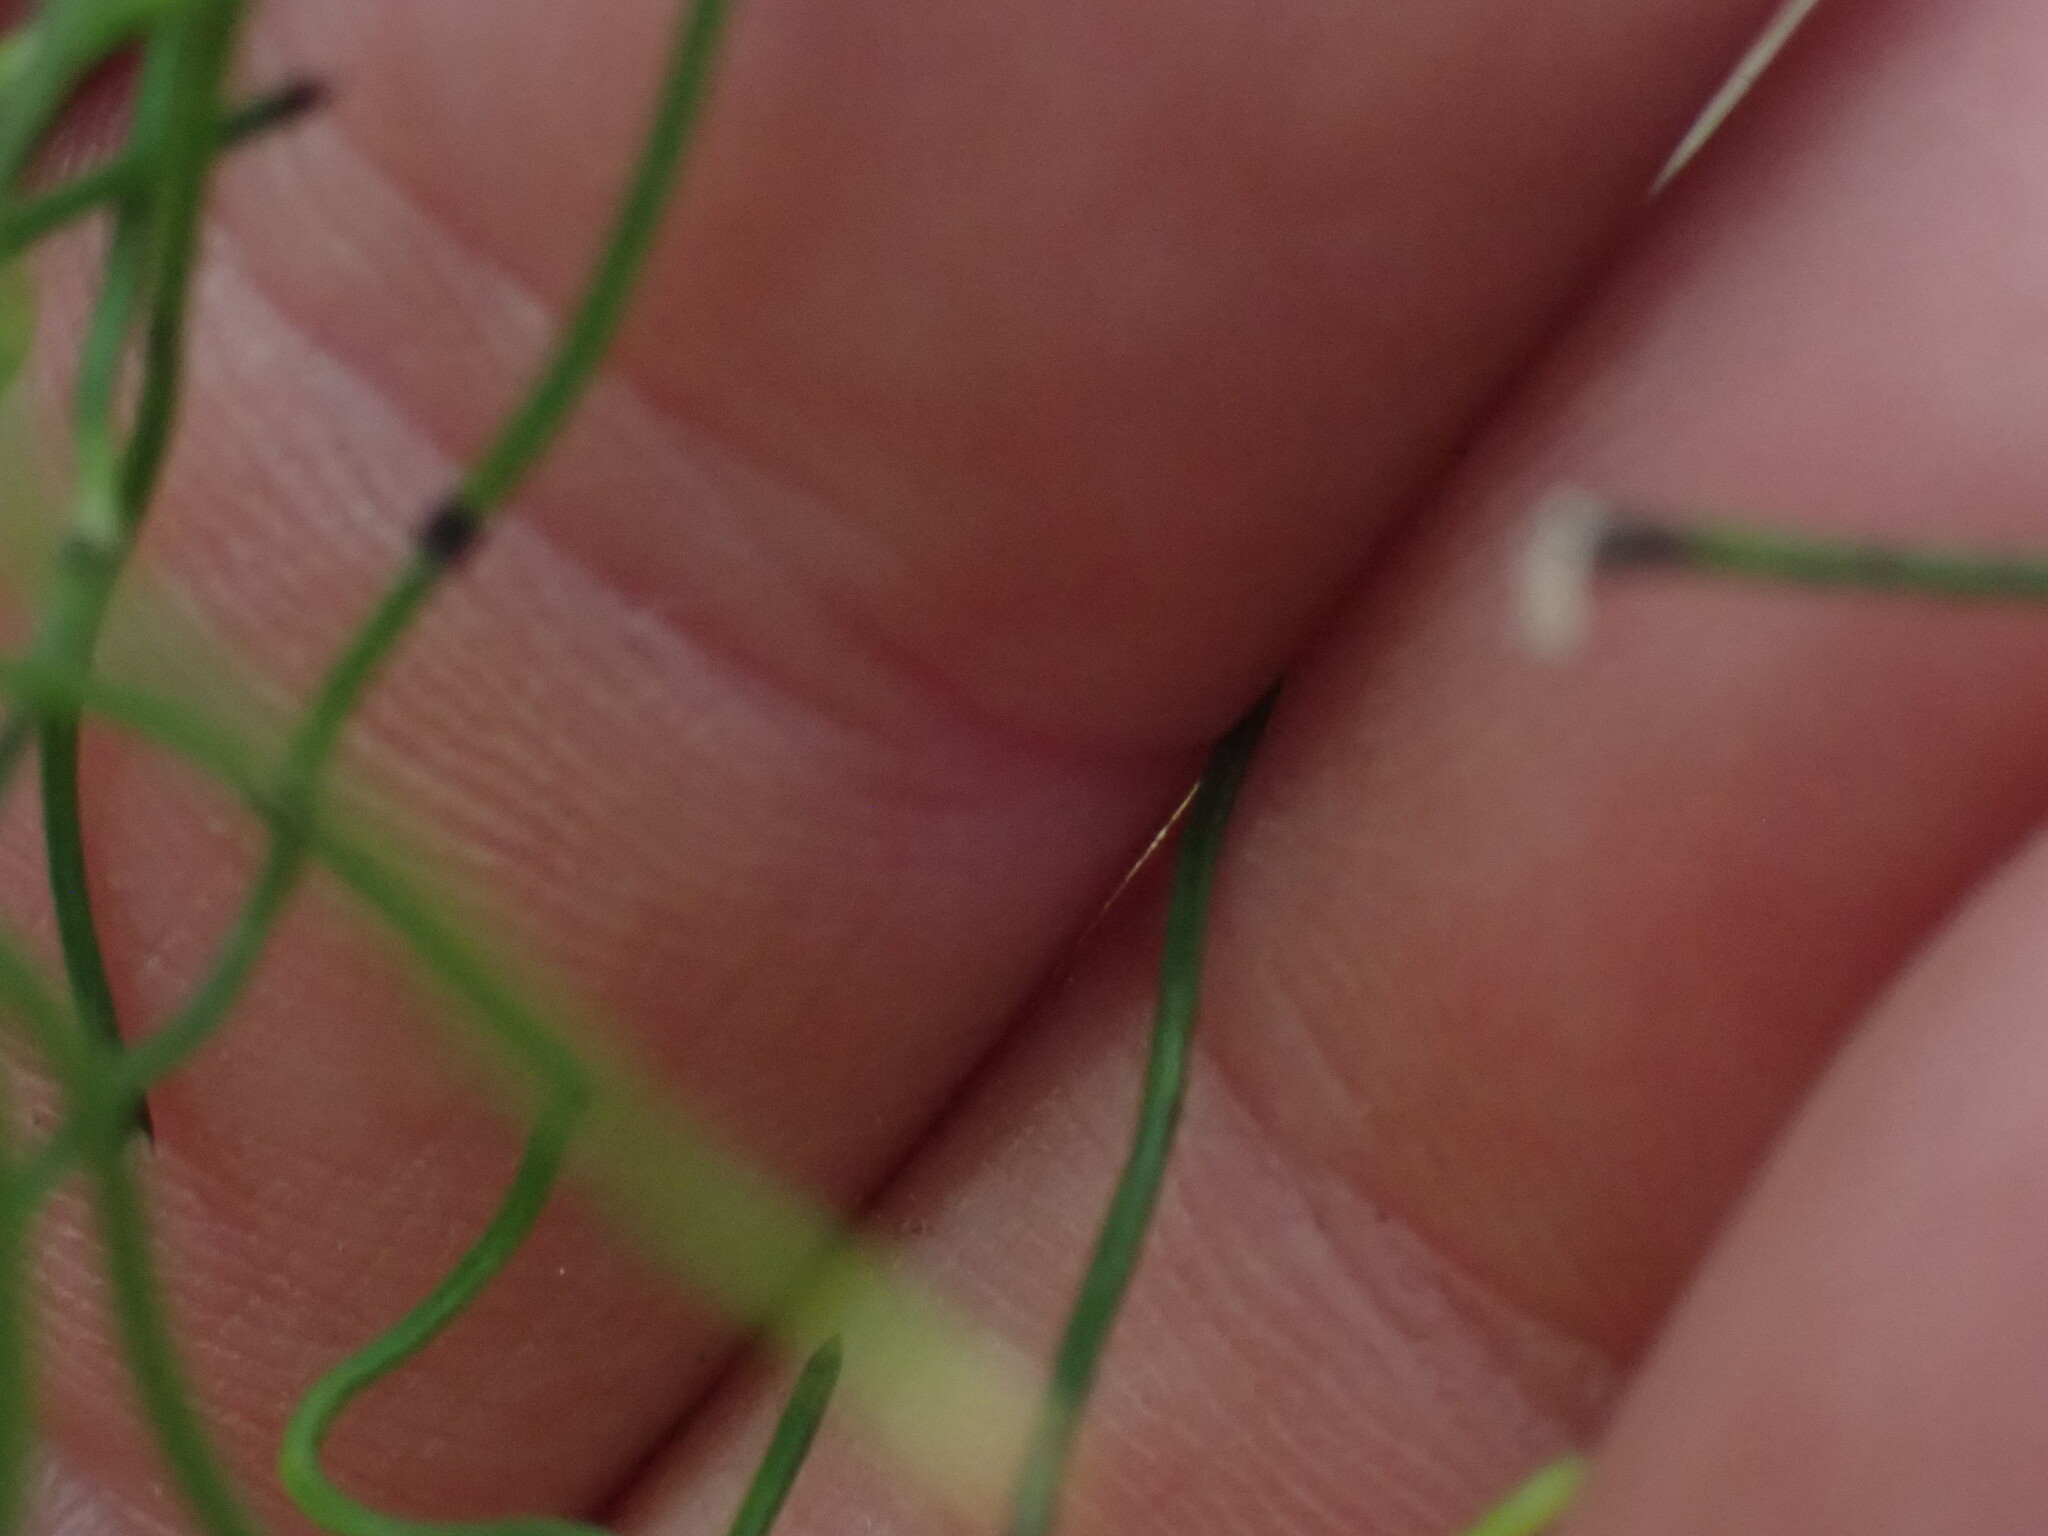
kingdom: Plantae
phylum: Tracheophyta
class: Polypodiopsida
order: Equisetales
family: Equisetaceae
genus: Equisetum
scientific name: Equisetum scirpoides
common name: Delicate horsetail
